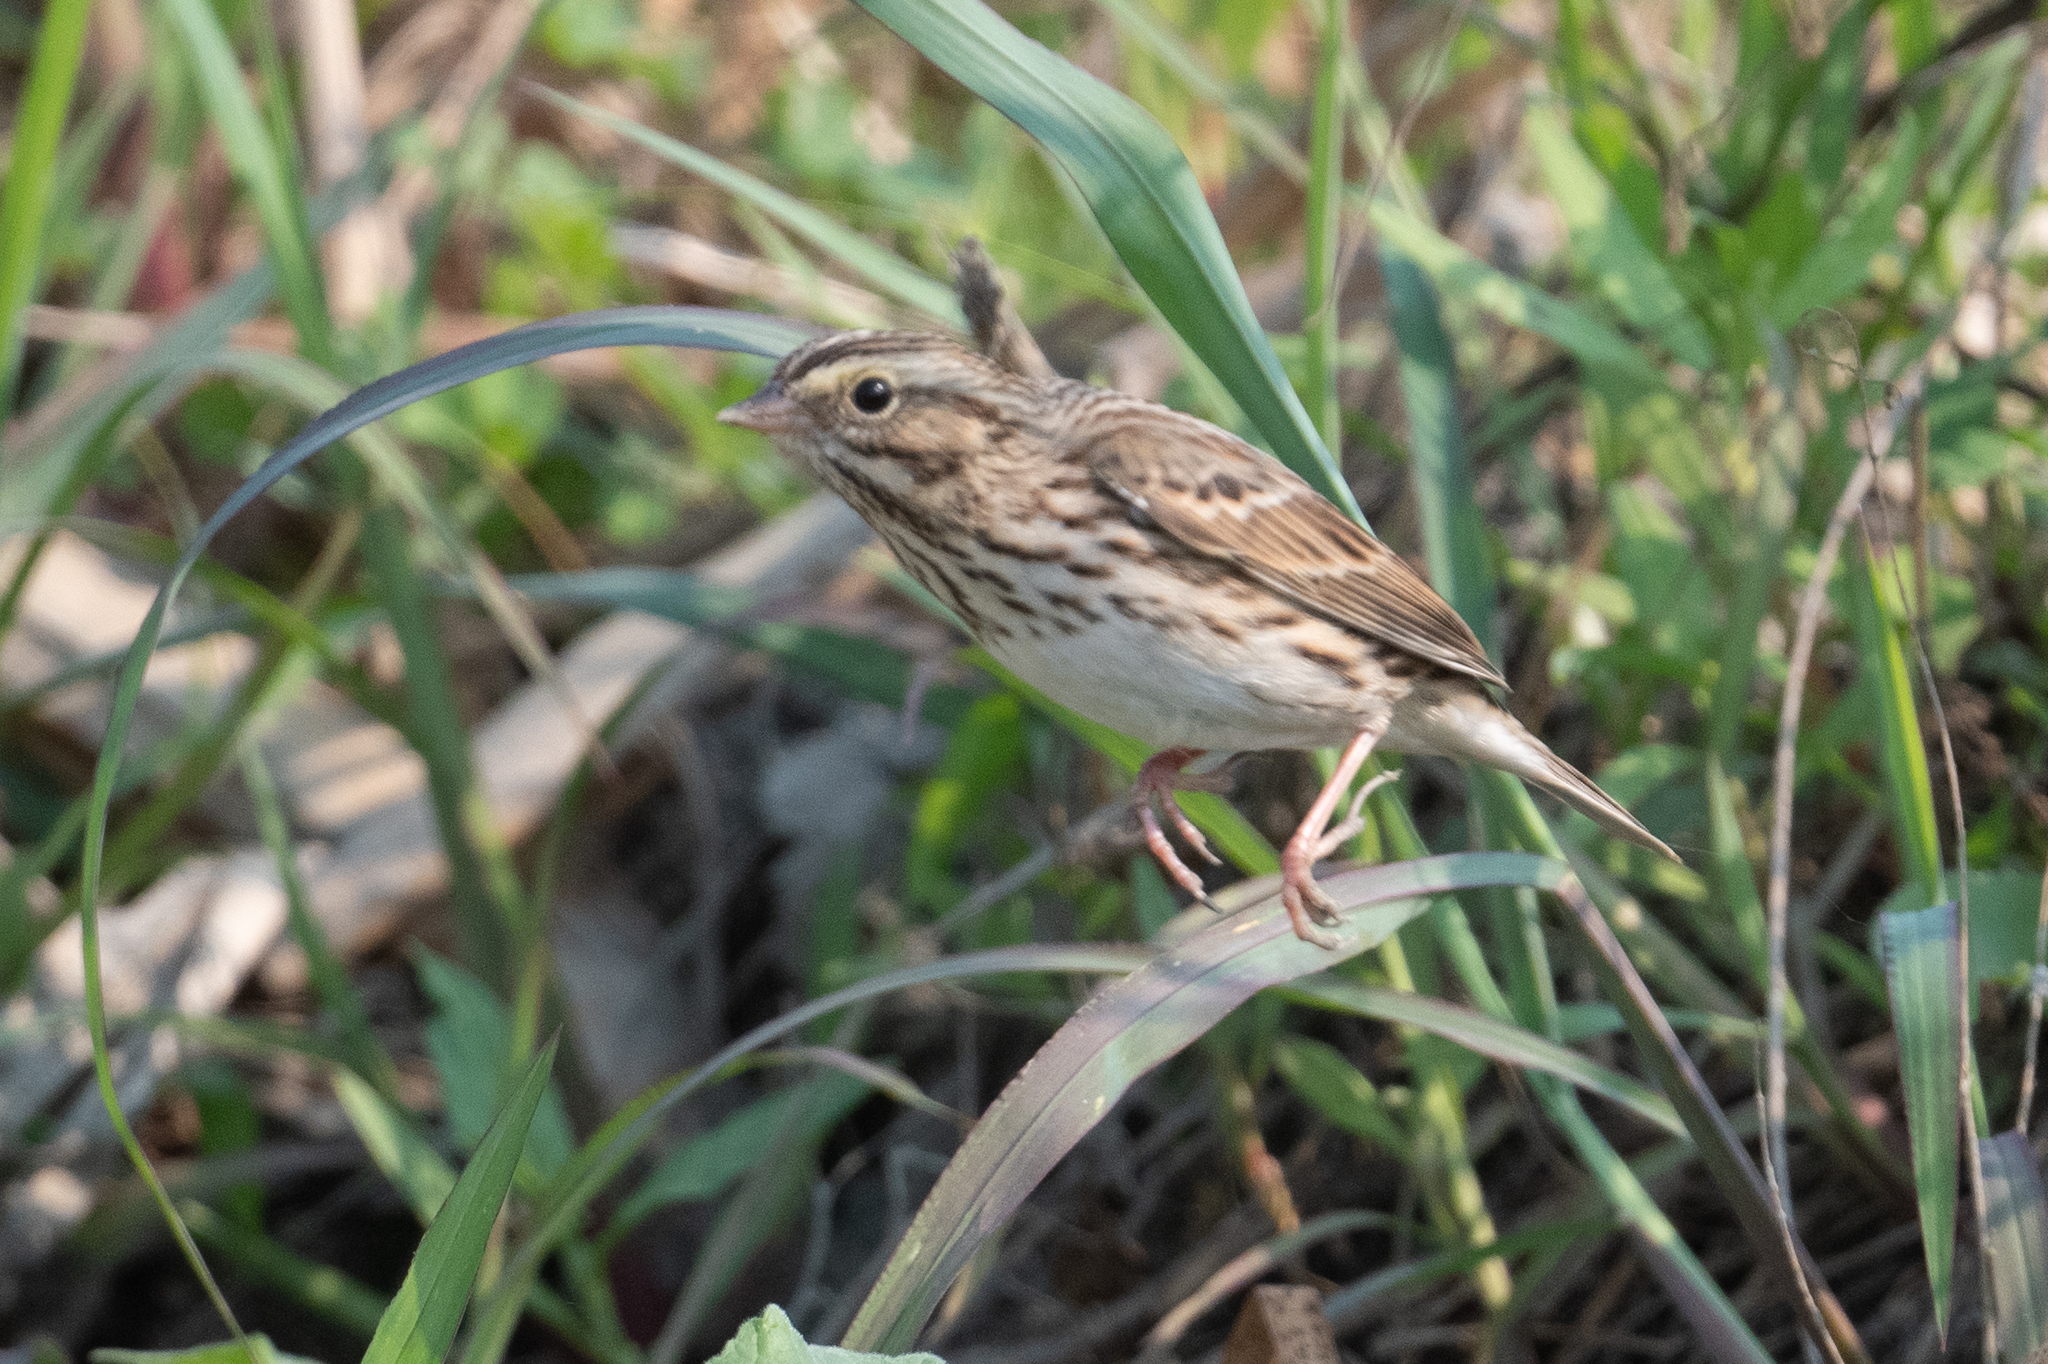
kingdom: Animalia
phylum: Chordata
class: Aves
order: Passeriformes
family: Passerellidae
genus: Passerculus
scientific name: Passerculus sandwichensis
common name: Savannah sparrow
